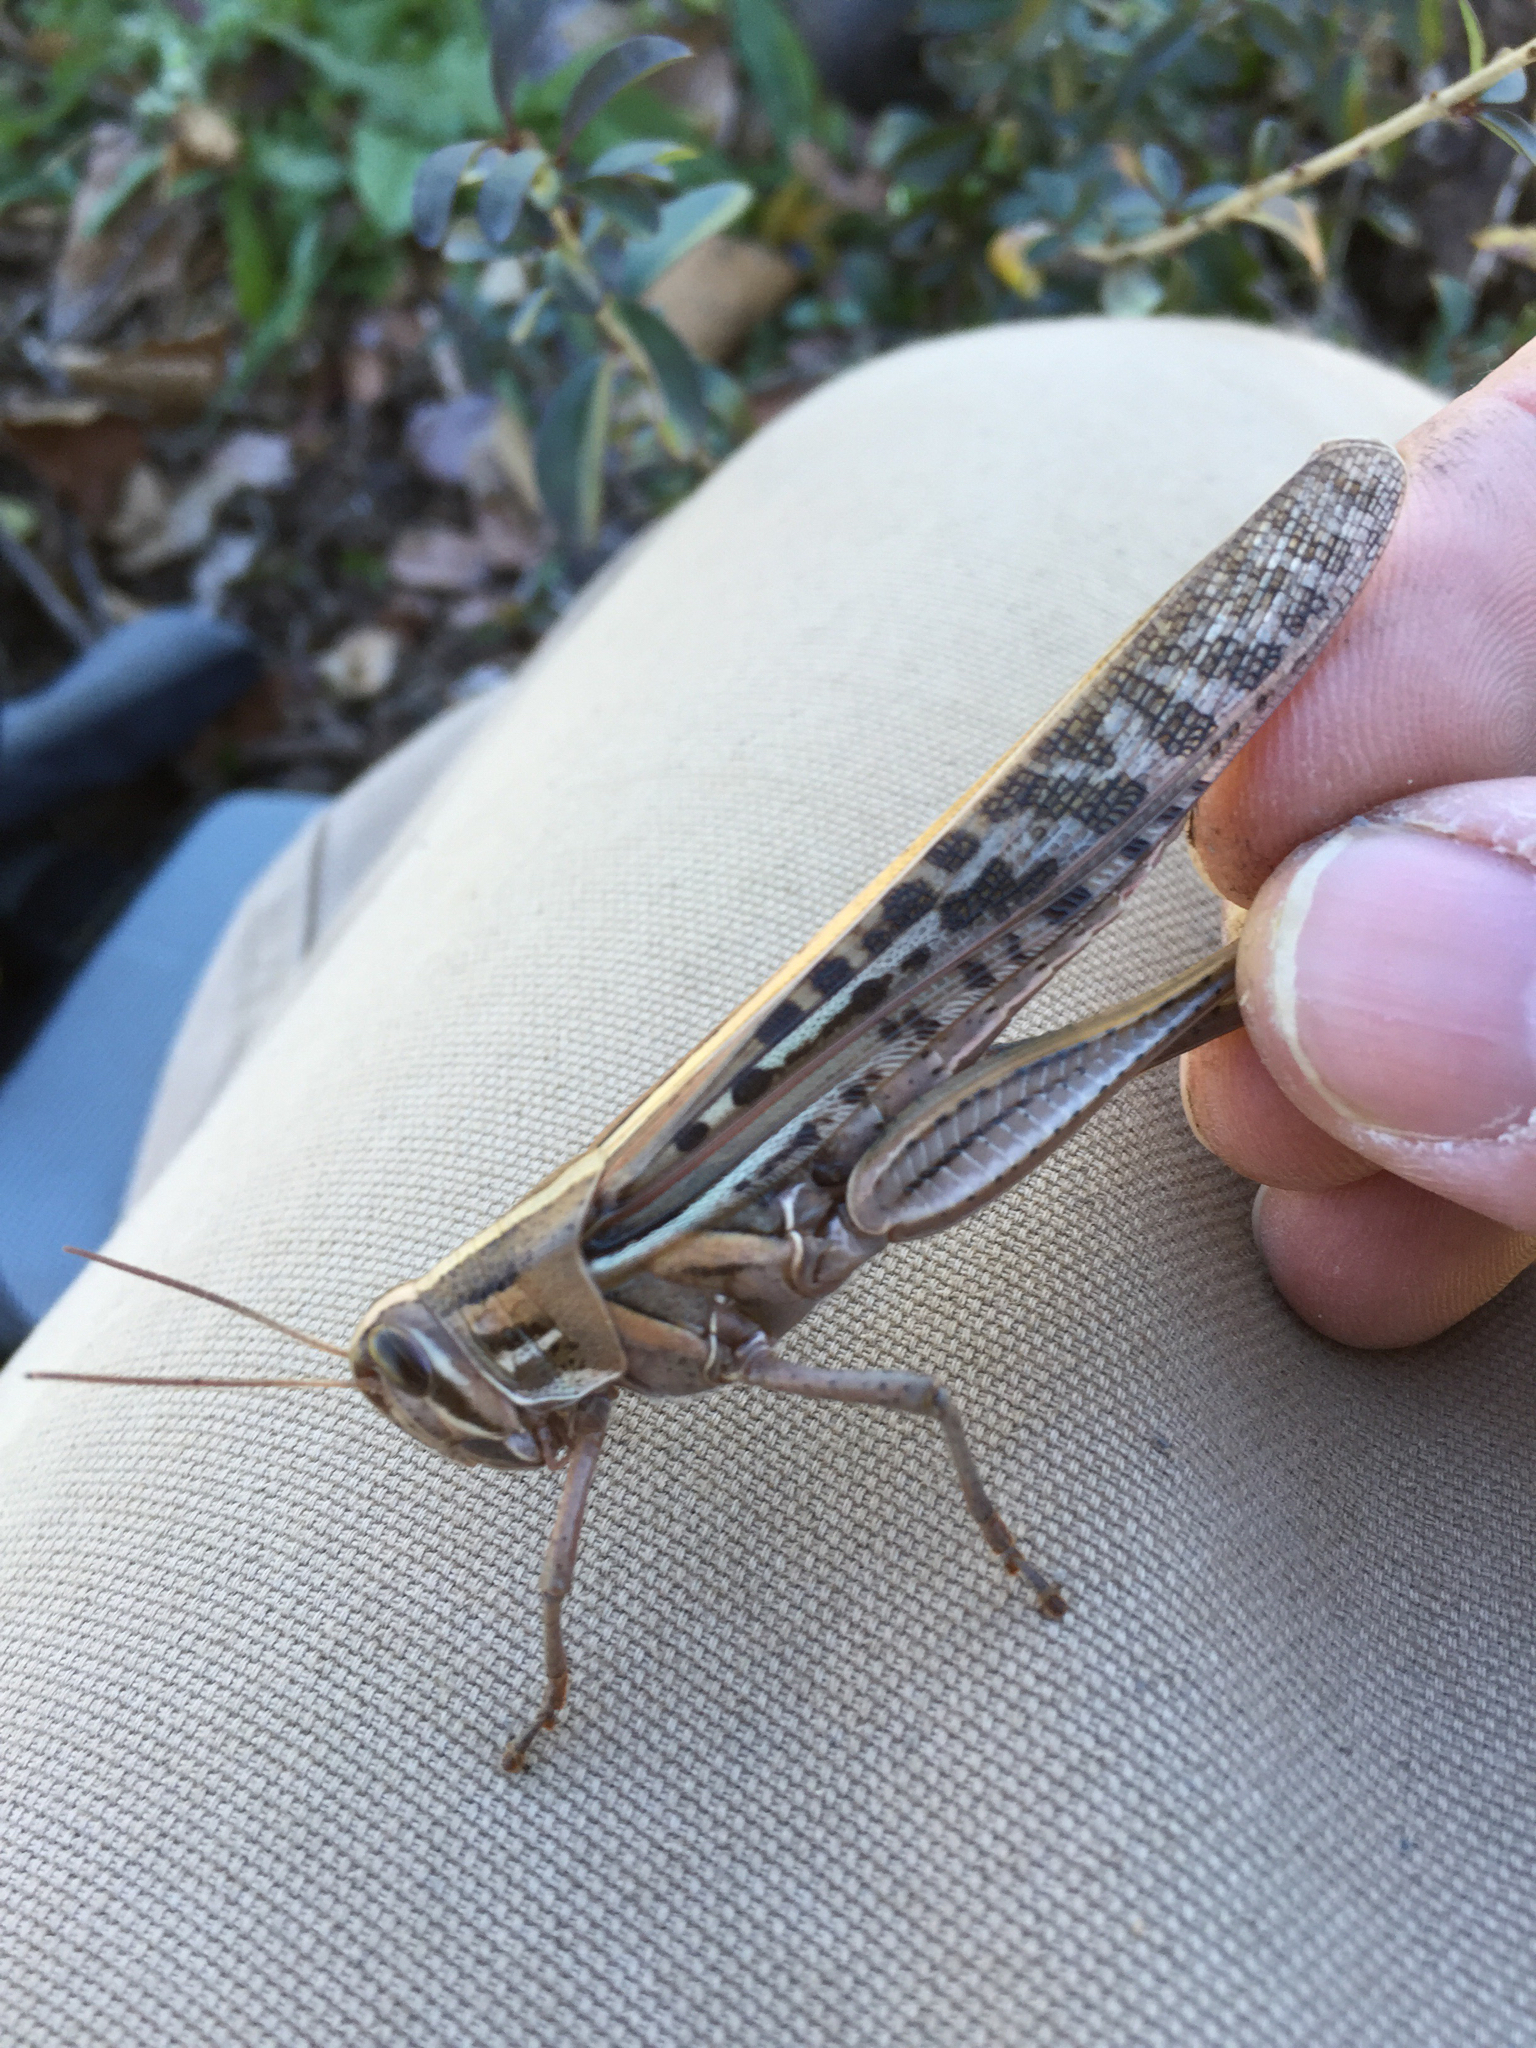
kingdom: Animalia
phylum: Arthropoda
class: Insecta
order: Orthoptera
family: Acrididae
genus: Schistocerca
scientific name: Schistocerca americana
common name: American bird locust
